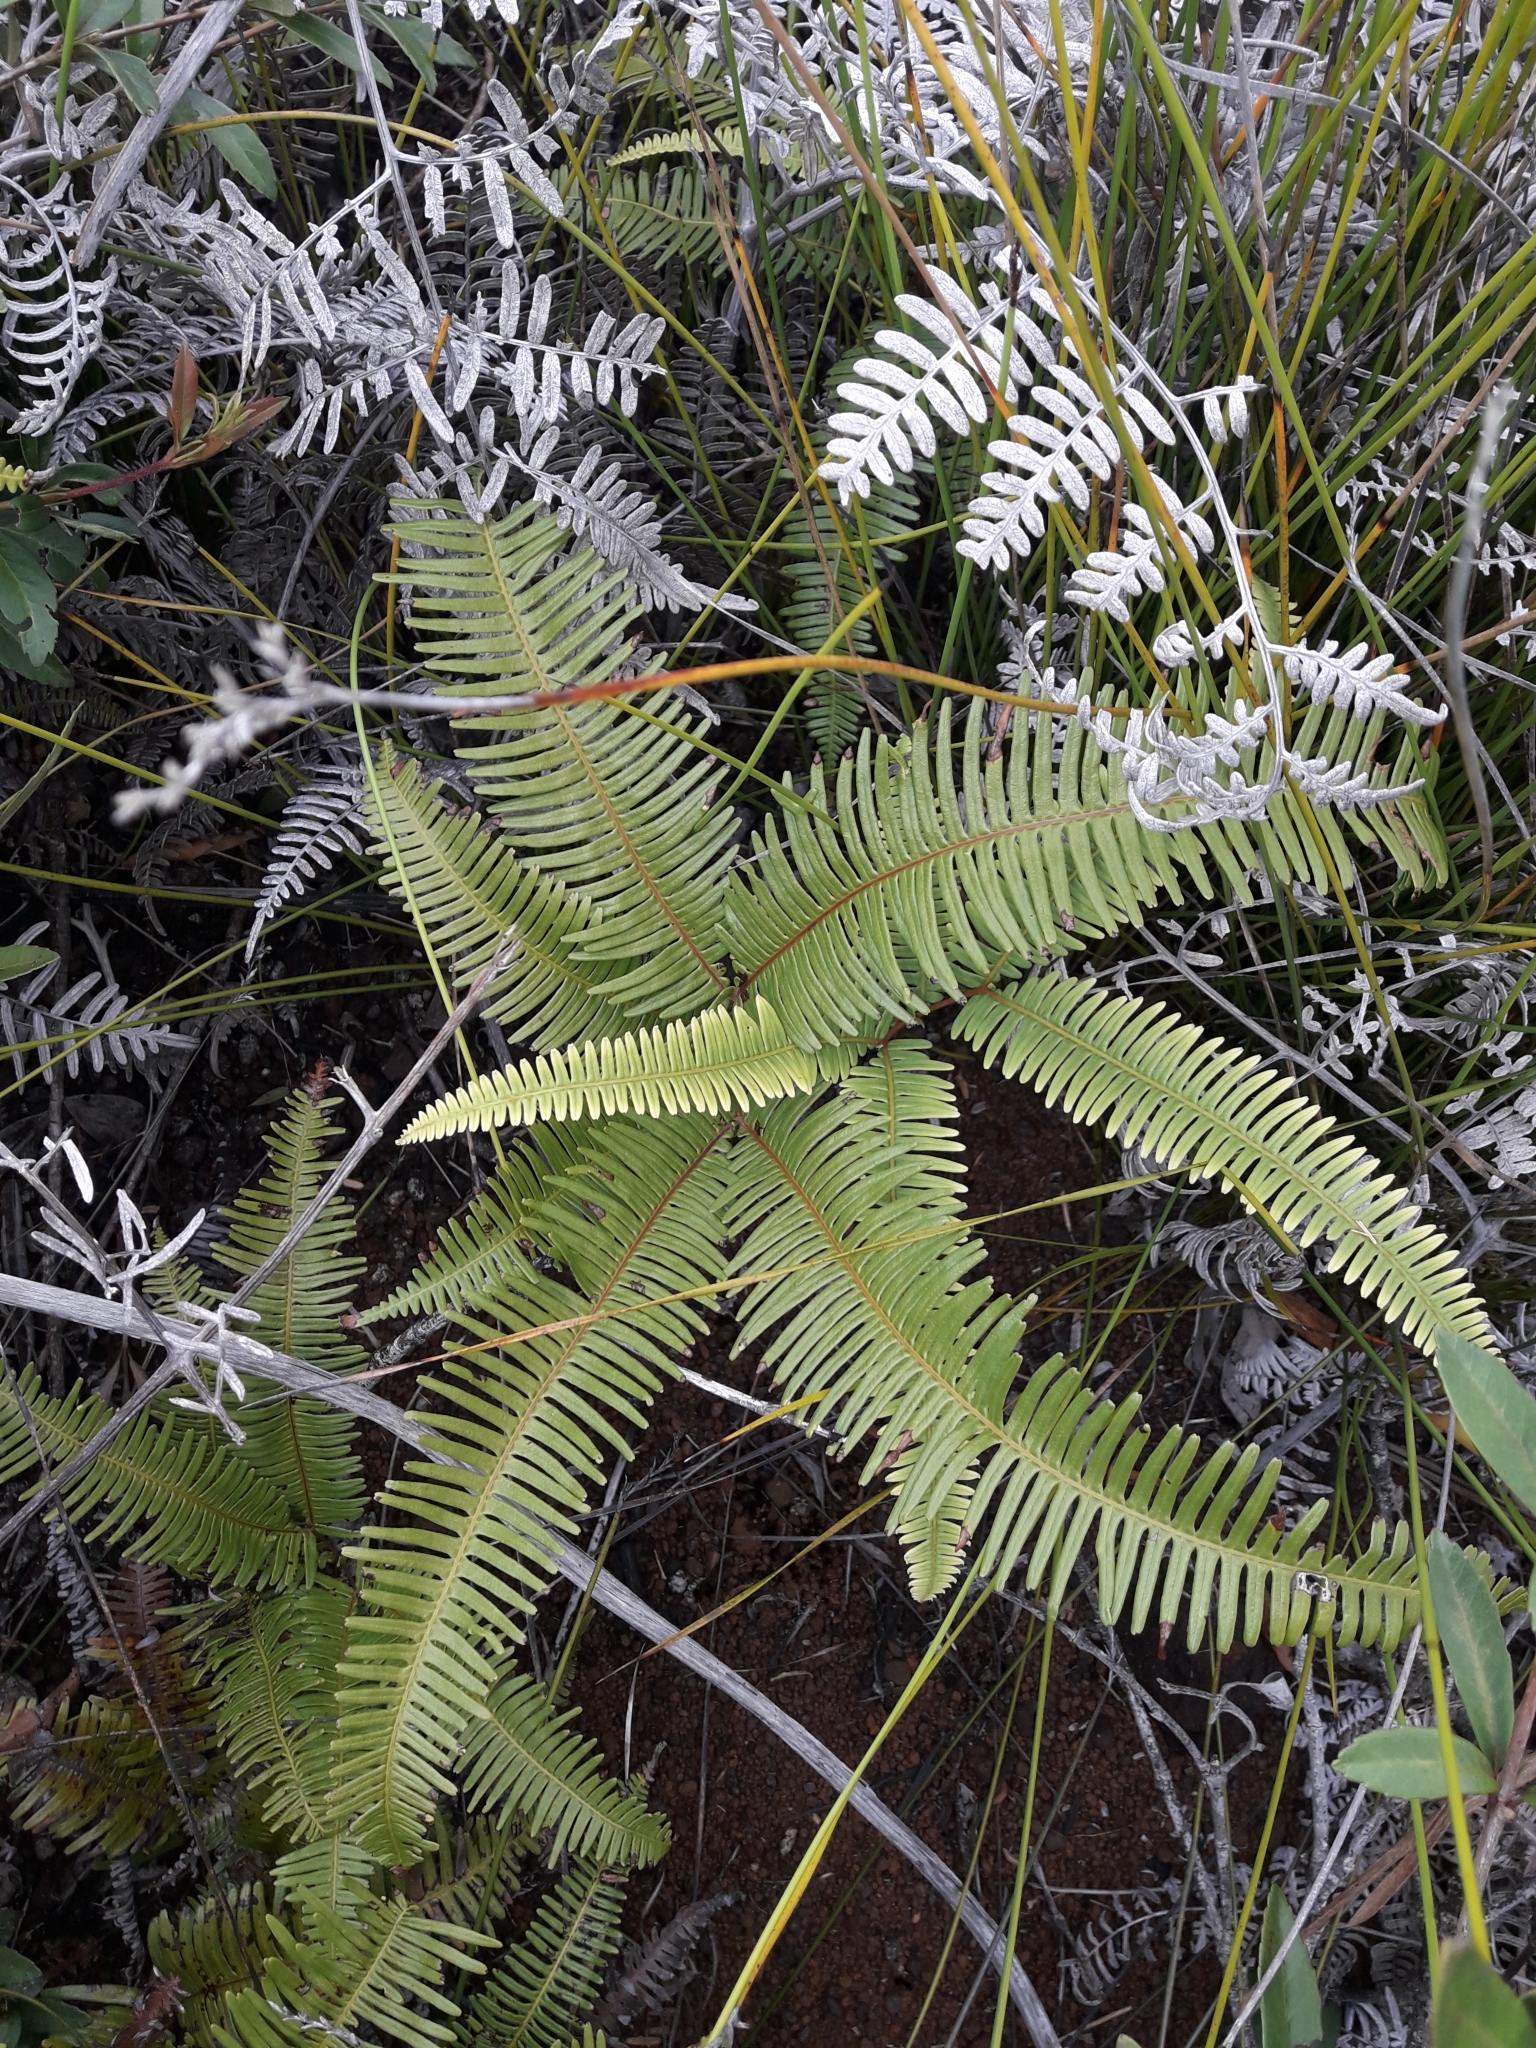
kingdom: Plantae
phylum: Tracheophyta
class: Polypodiopsida
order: Gleicheniales
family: Gleicheniaceae
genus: Dicranopteris
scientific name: Dicranopteris linearis
